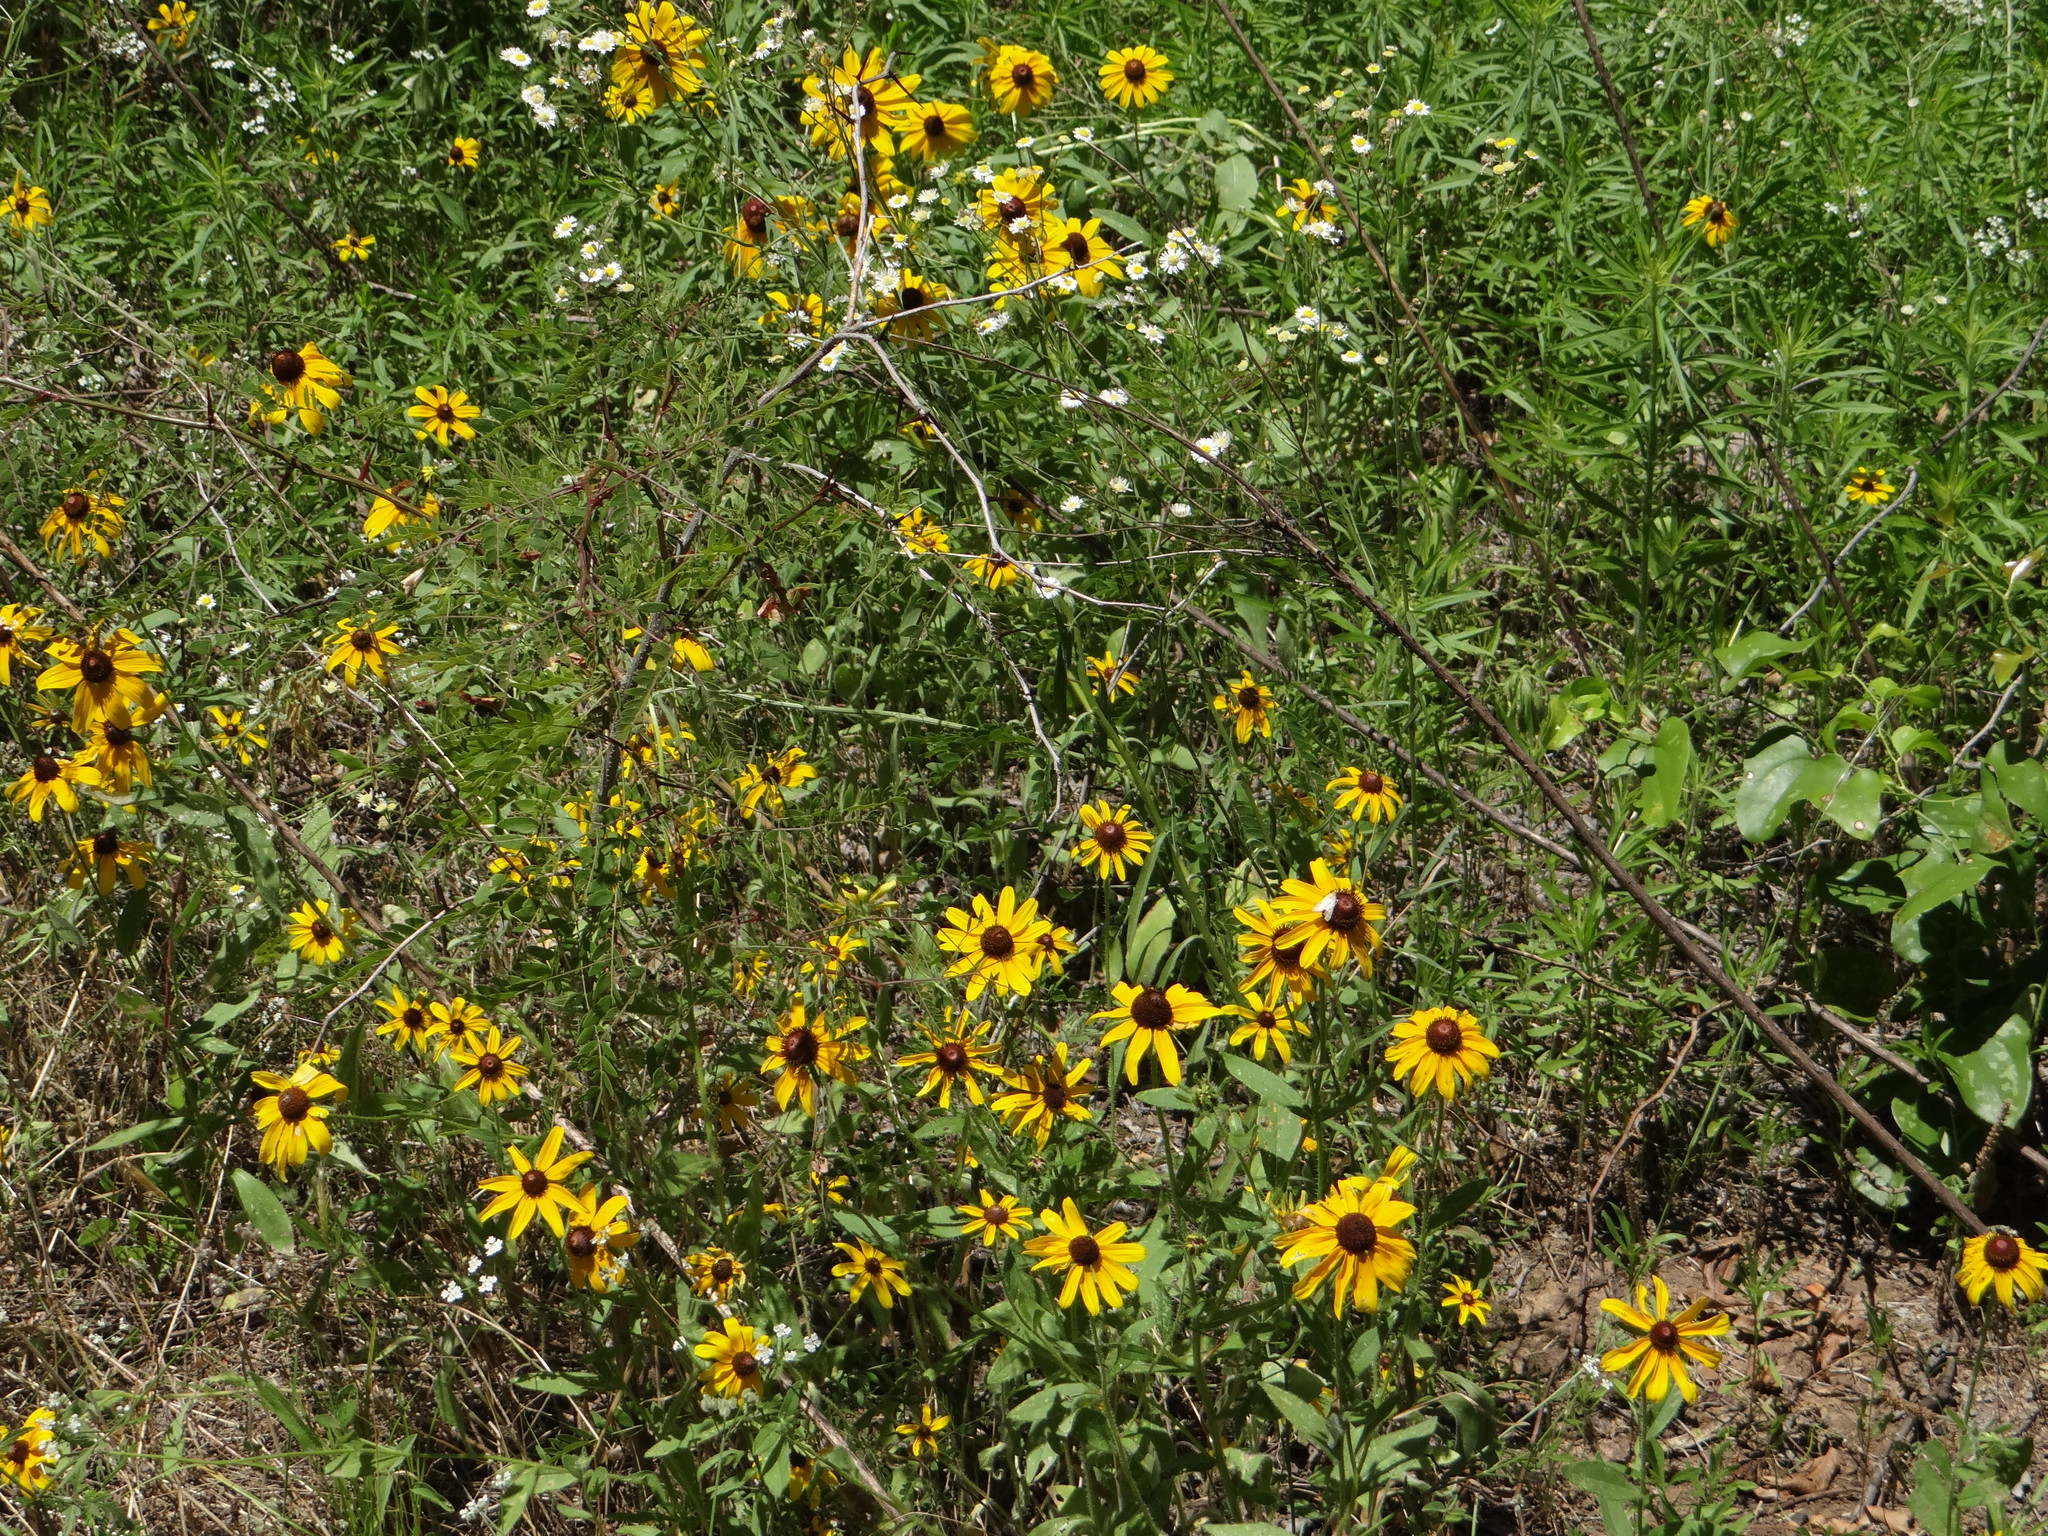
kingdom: Plantae
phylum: Tracheophyta
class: Magnoliopsida
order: Asterales
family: Asteraceae
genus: Rudbeckia
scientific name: Rudbeckia hirta
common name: Black-eyed-susan
